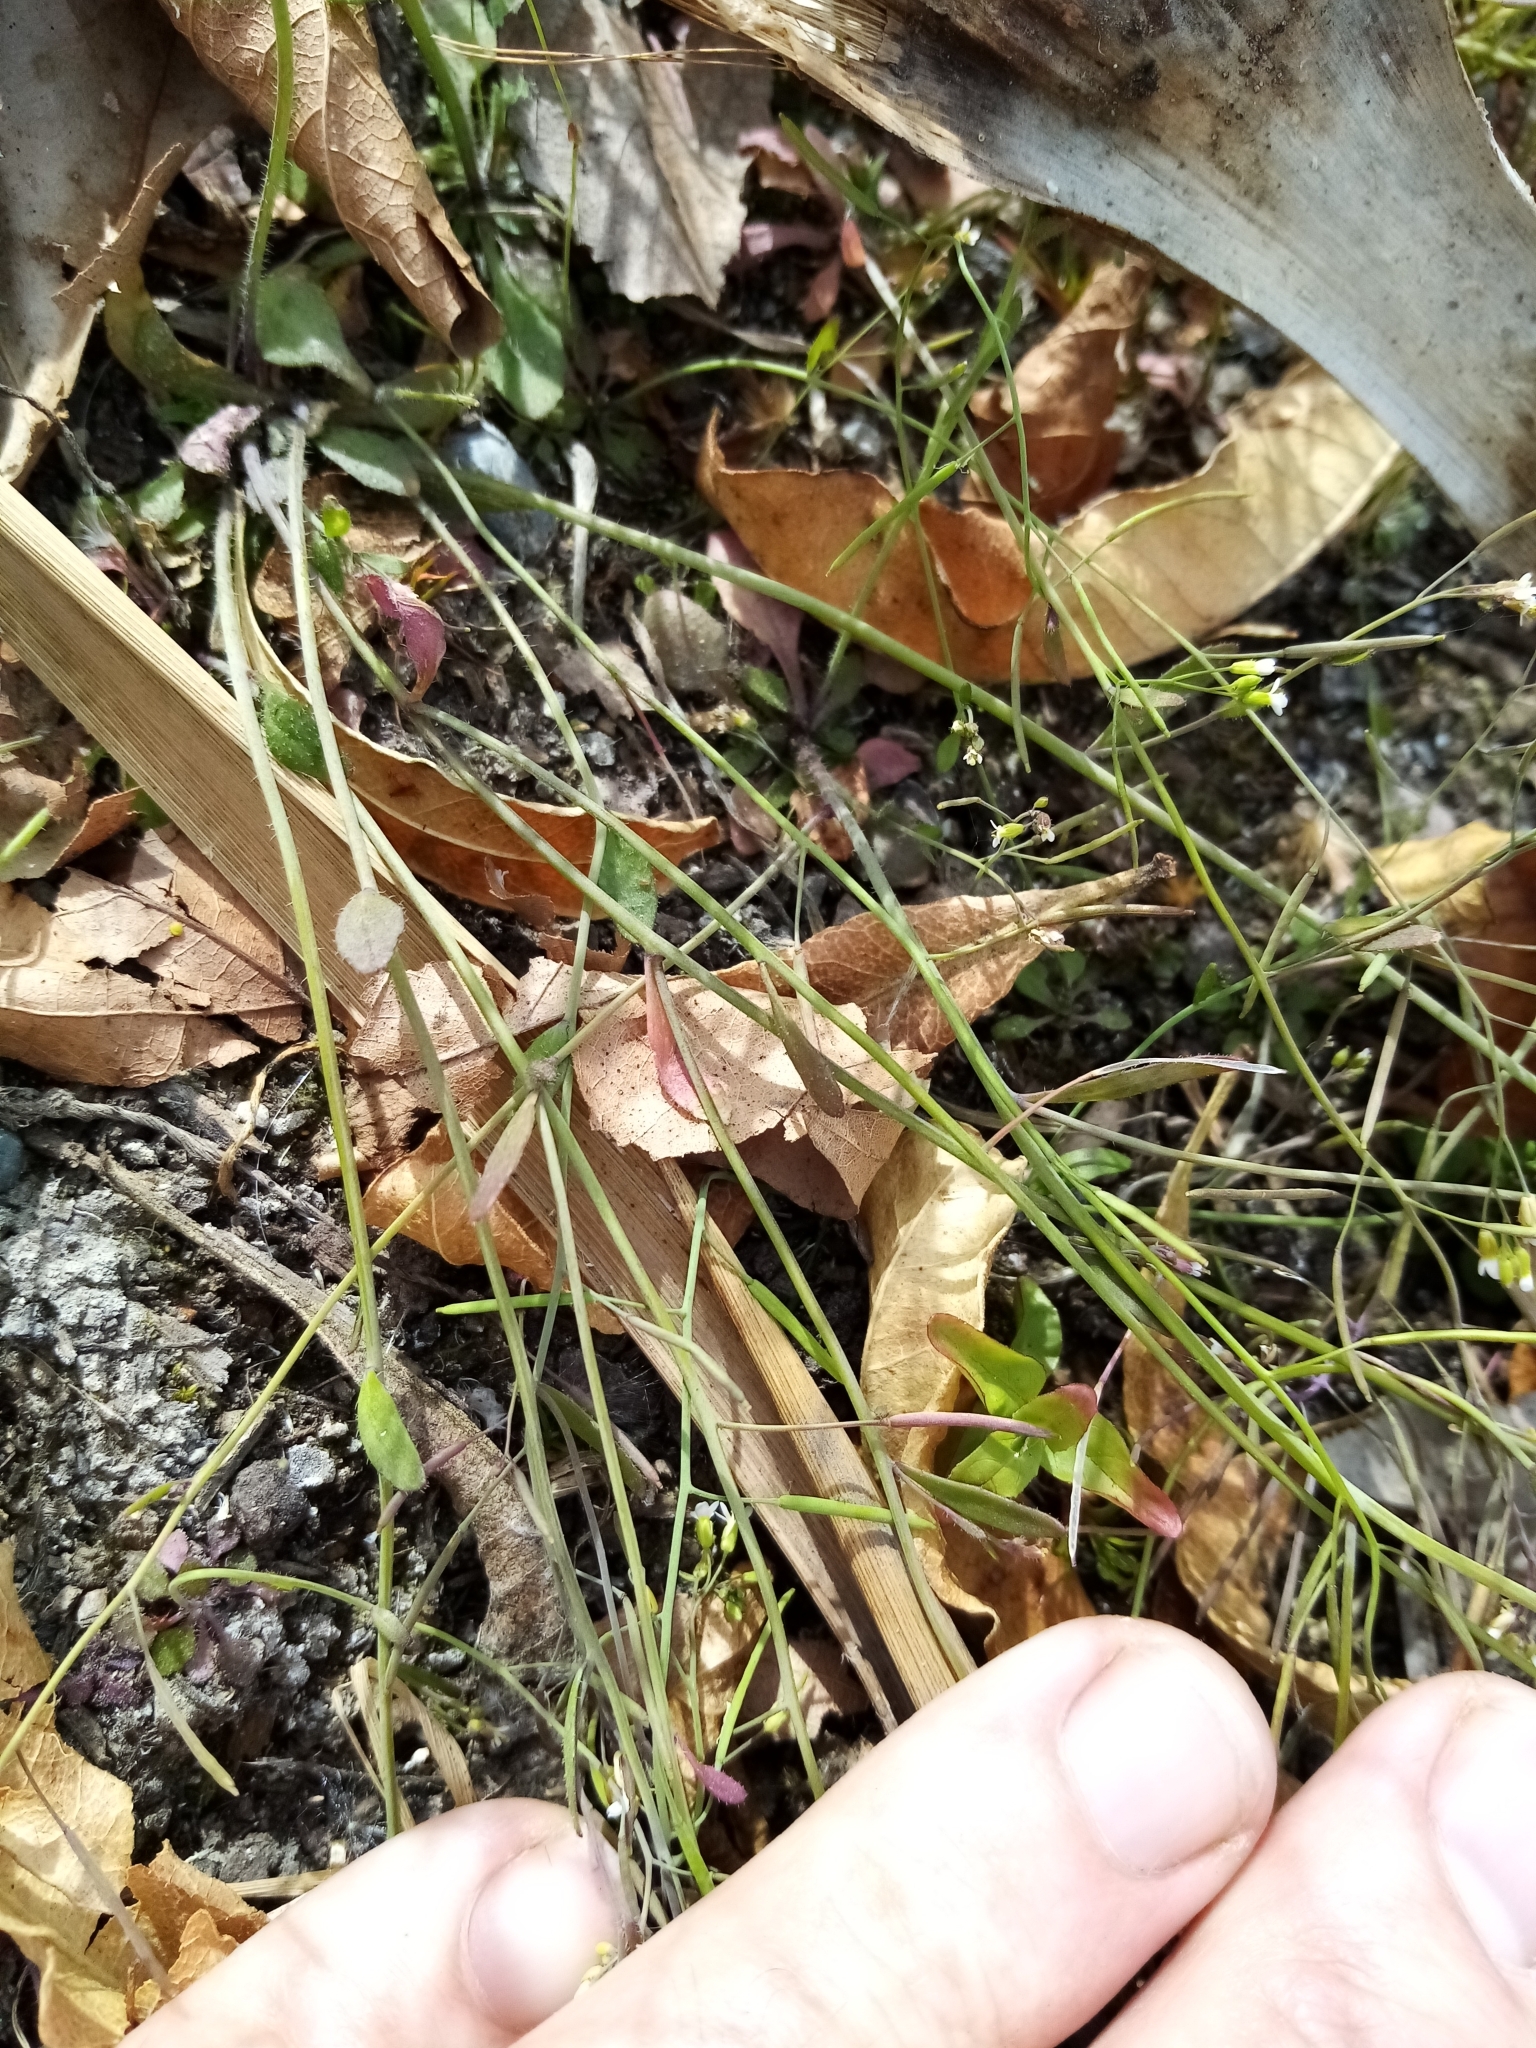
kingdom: Plantae
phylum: Tracheophyta
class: Magnoliopsida
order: Brassicales
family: Brassicaceae
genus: Arabidopsis
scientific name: Arabidopsis thaliana
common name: Thale cress
